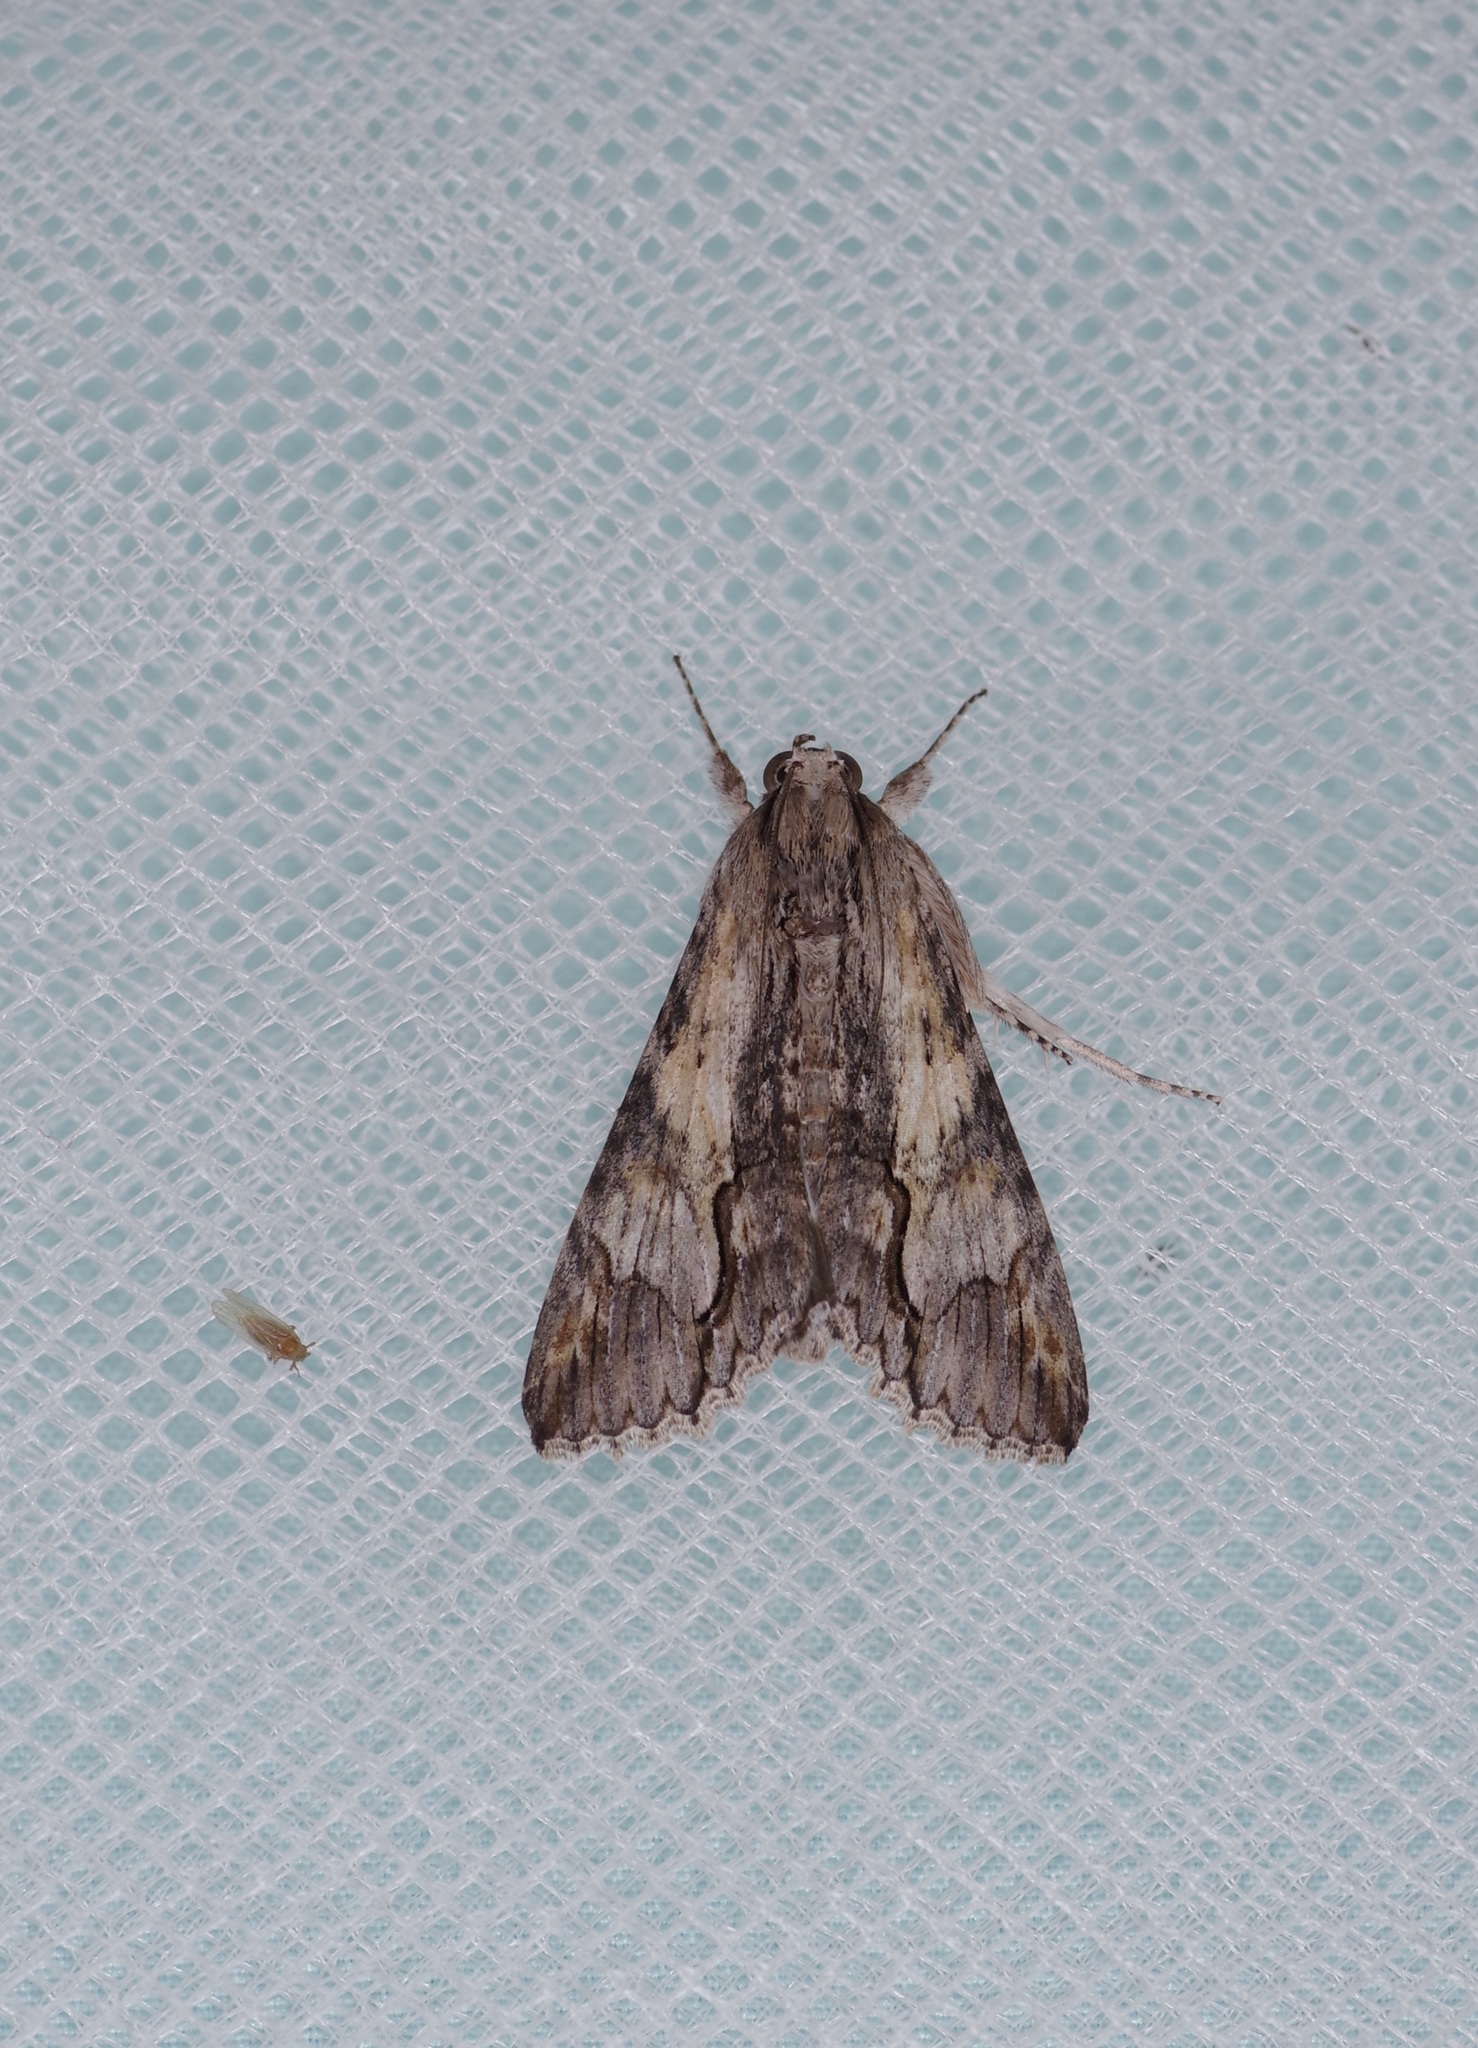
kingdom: Animalia
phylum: Arthropoda
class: Insecta
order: Lepidoptera
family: Erebidae
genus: Melipotis
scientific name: Melipotis acontioides
